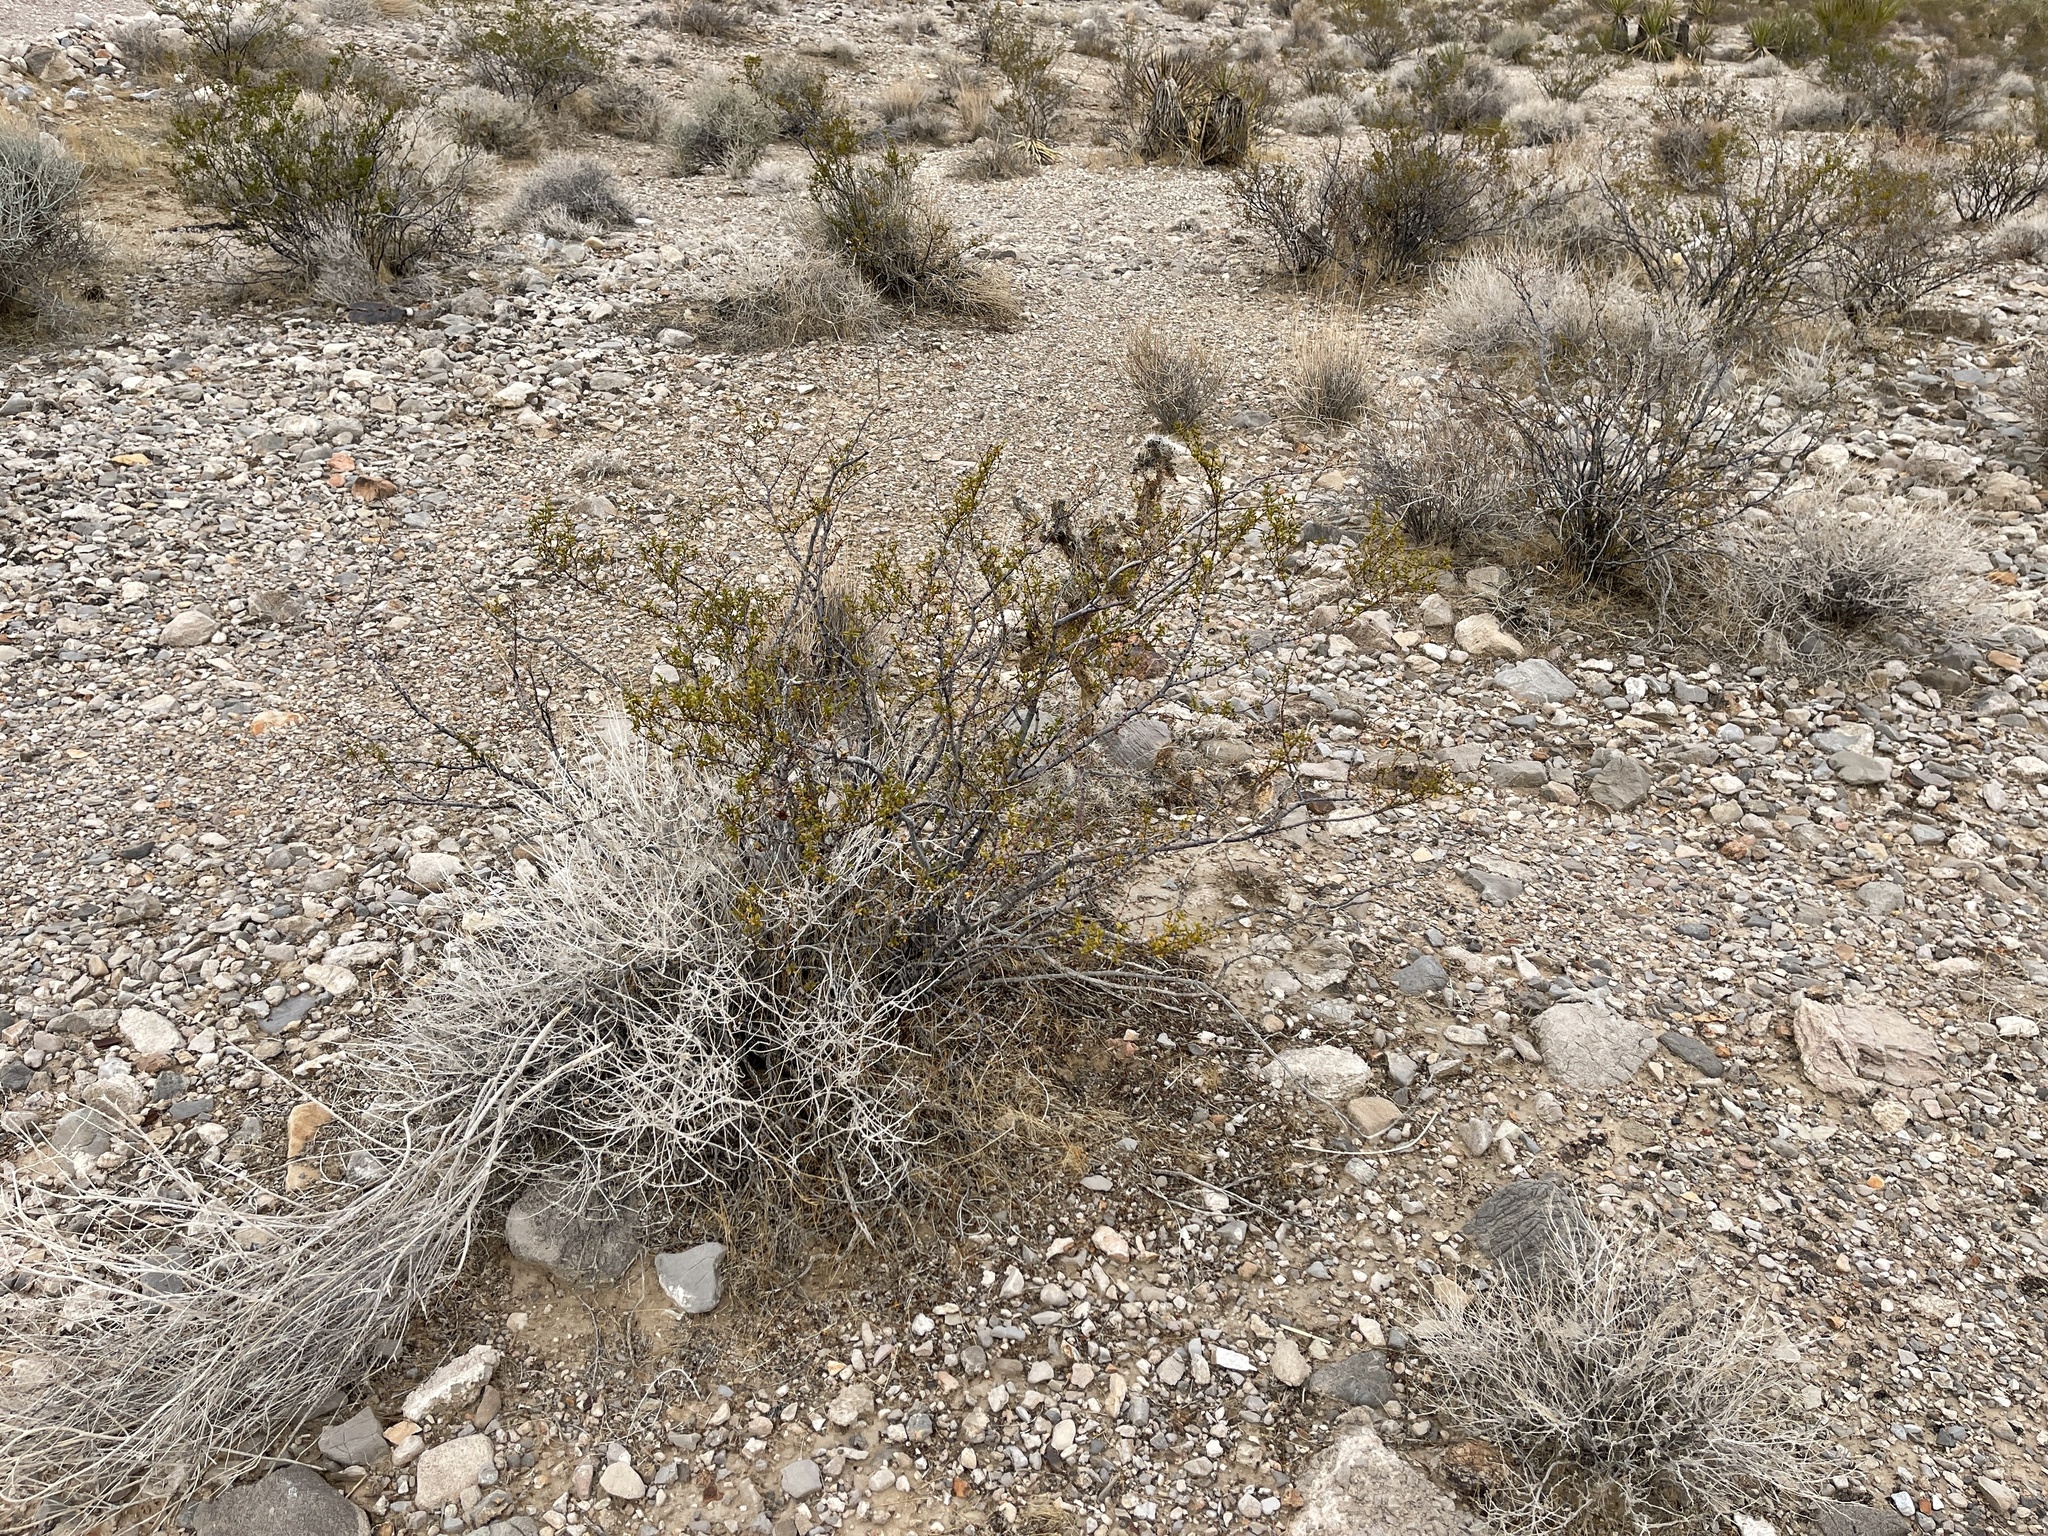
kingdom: Plantae
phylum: Tracheophyta
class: Magnoliopsida
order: Zygophyllales
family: Zygophyllaceae
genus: Larrea
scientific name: Larrea tridentata
